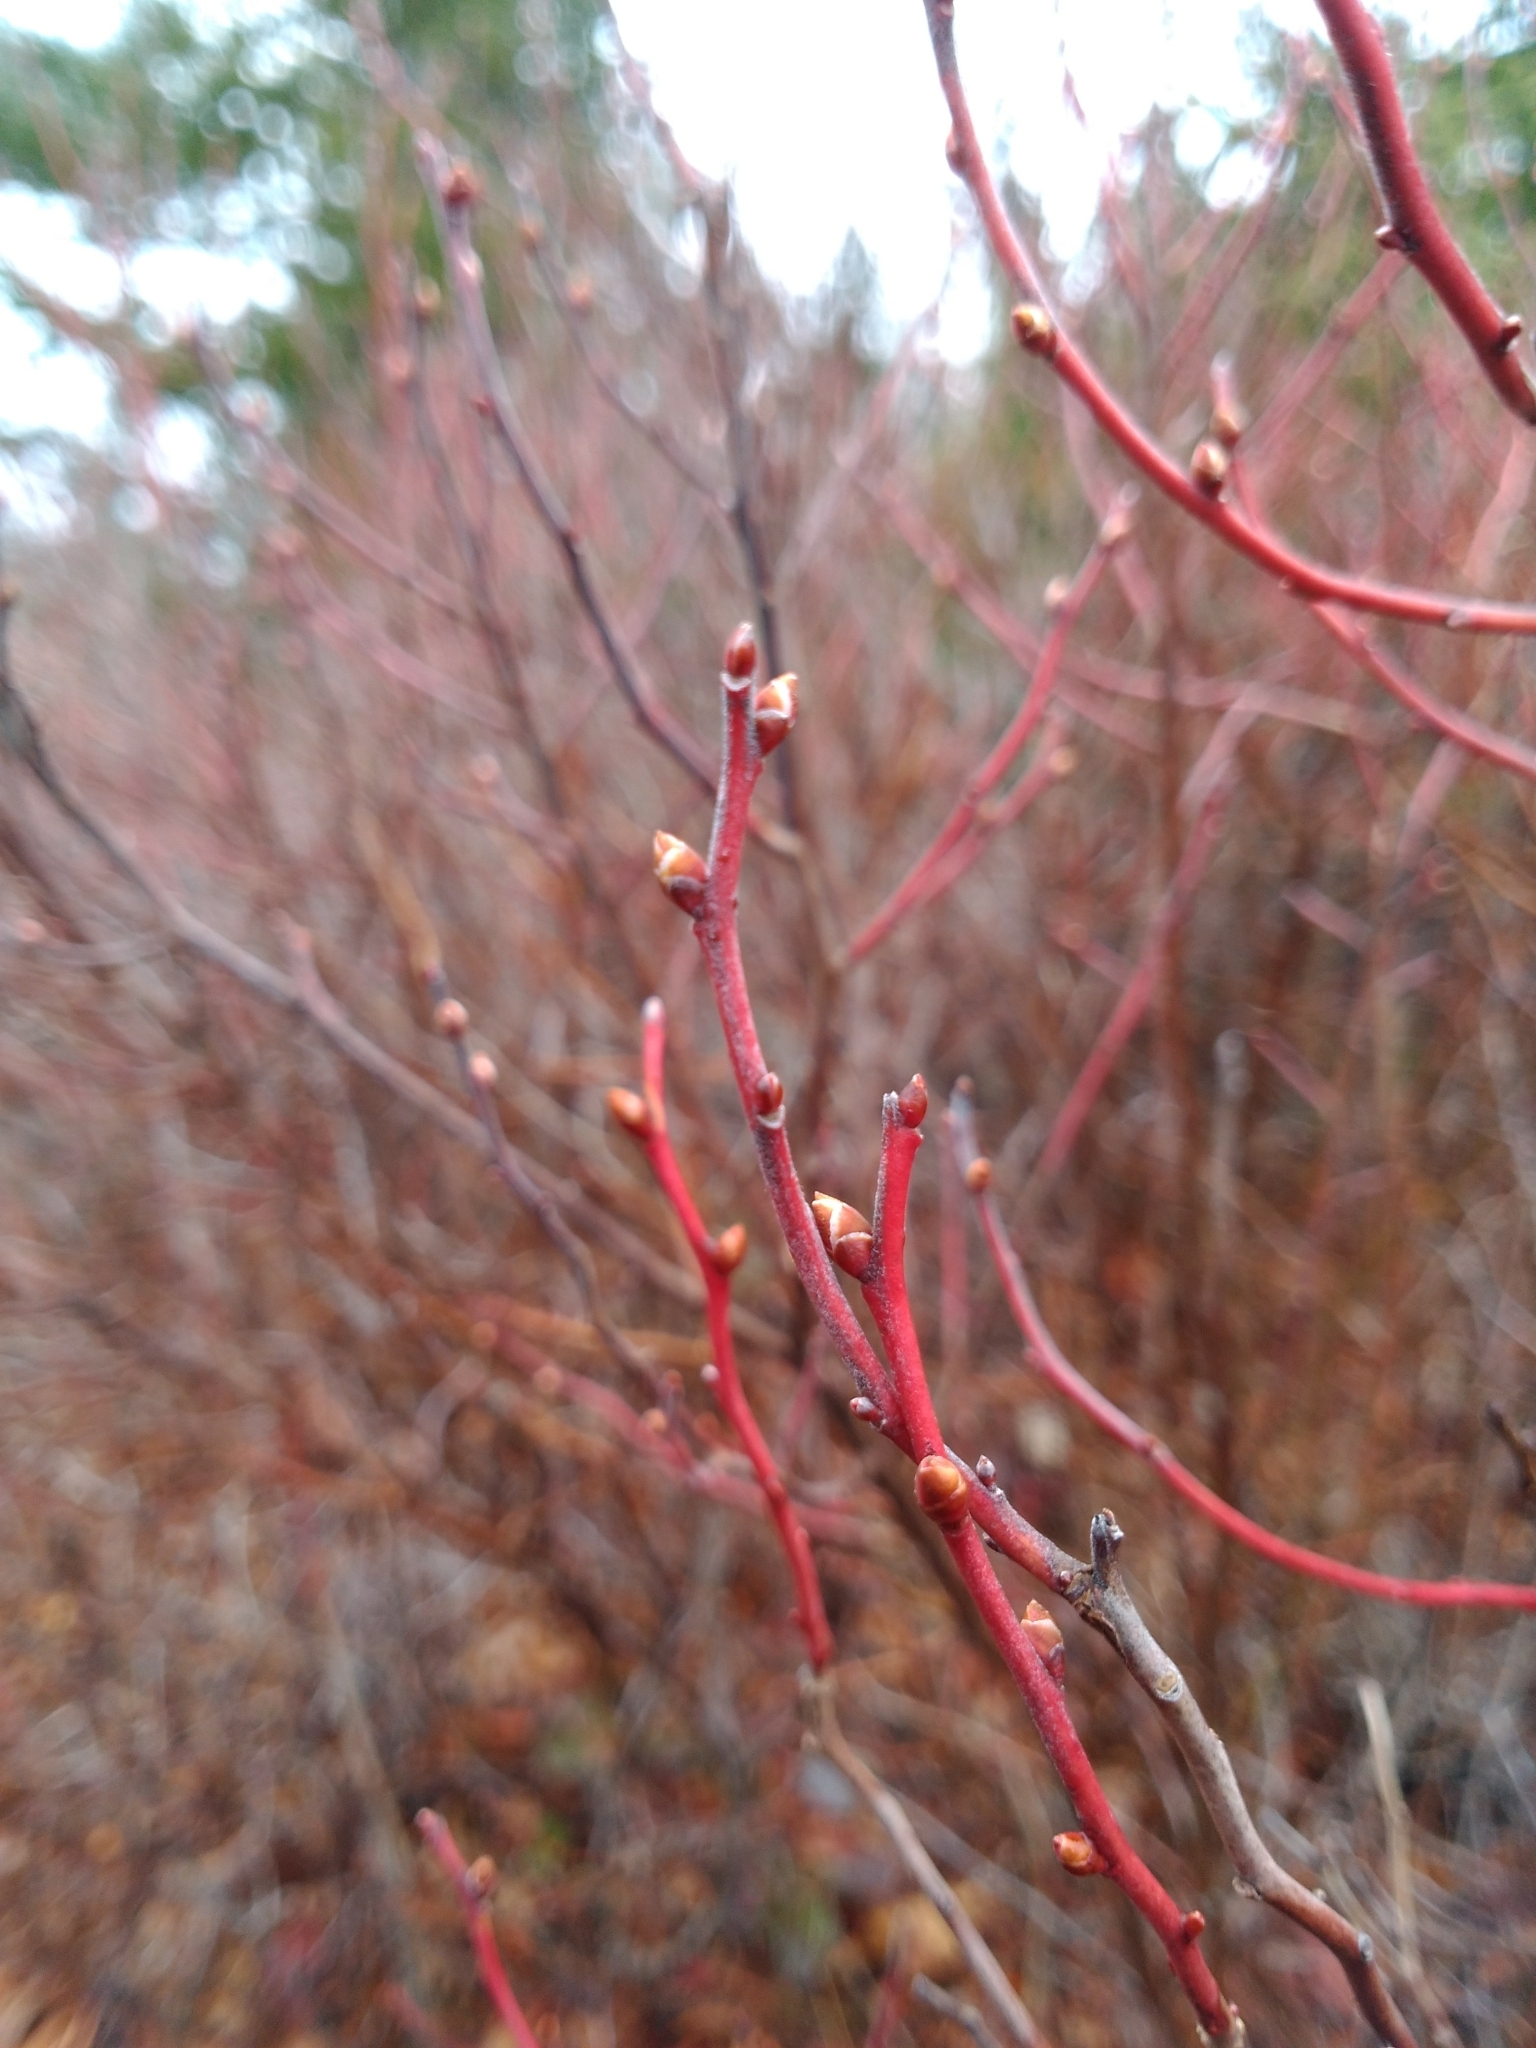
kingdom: Plantae
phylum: Tracheophyta
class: Magnoliopsida
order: Ericales
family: Ericaceae
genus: Gaylussacia
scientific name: Gaylussacia baccata
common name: Black huckleberry
